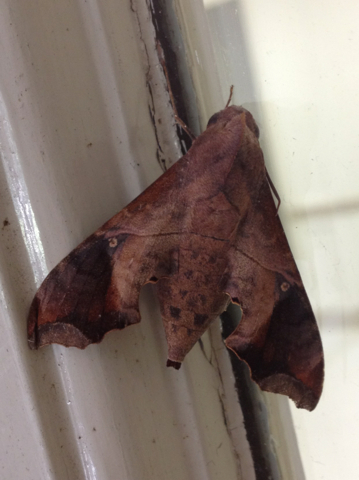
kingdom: Animalia
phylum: Arthropoda
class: Insecta
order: Lepidoptera
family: Sphingidae
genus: Enyo
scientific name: Enyo lugubris
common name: Mournful sphinx
